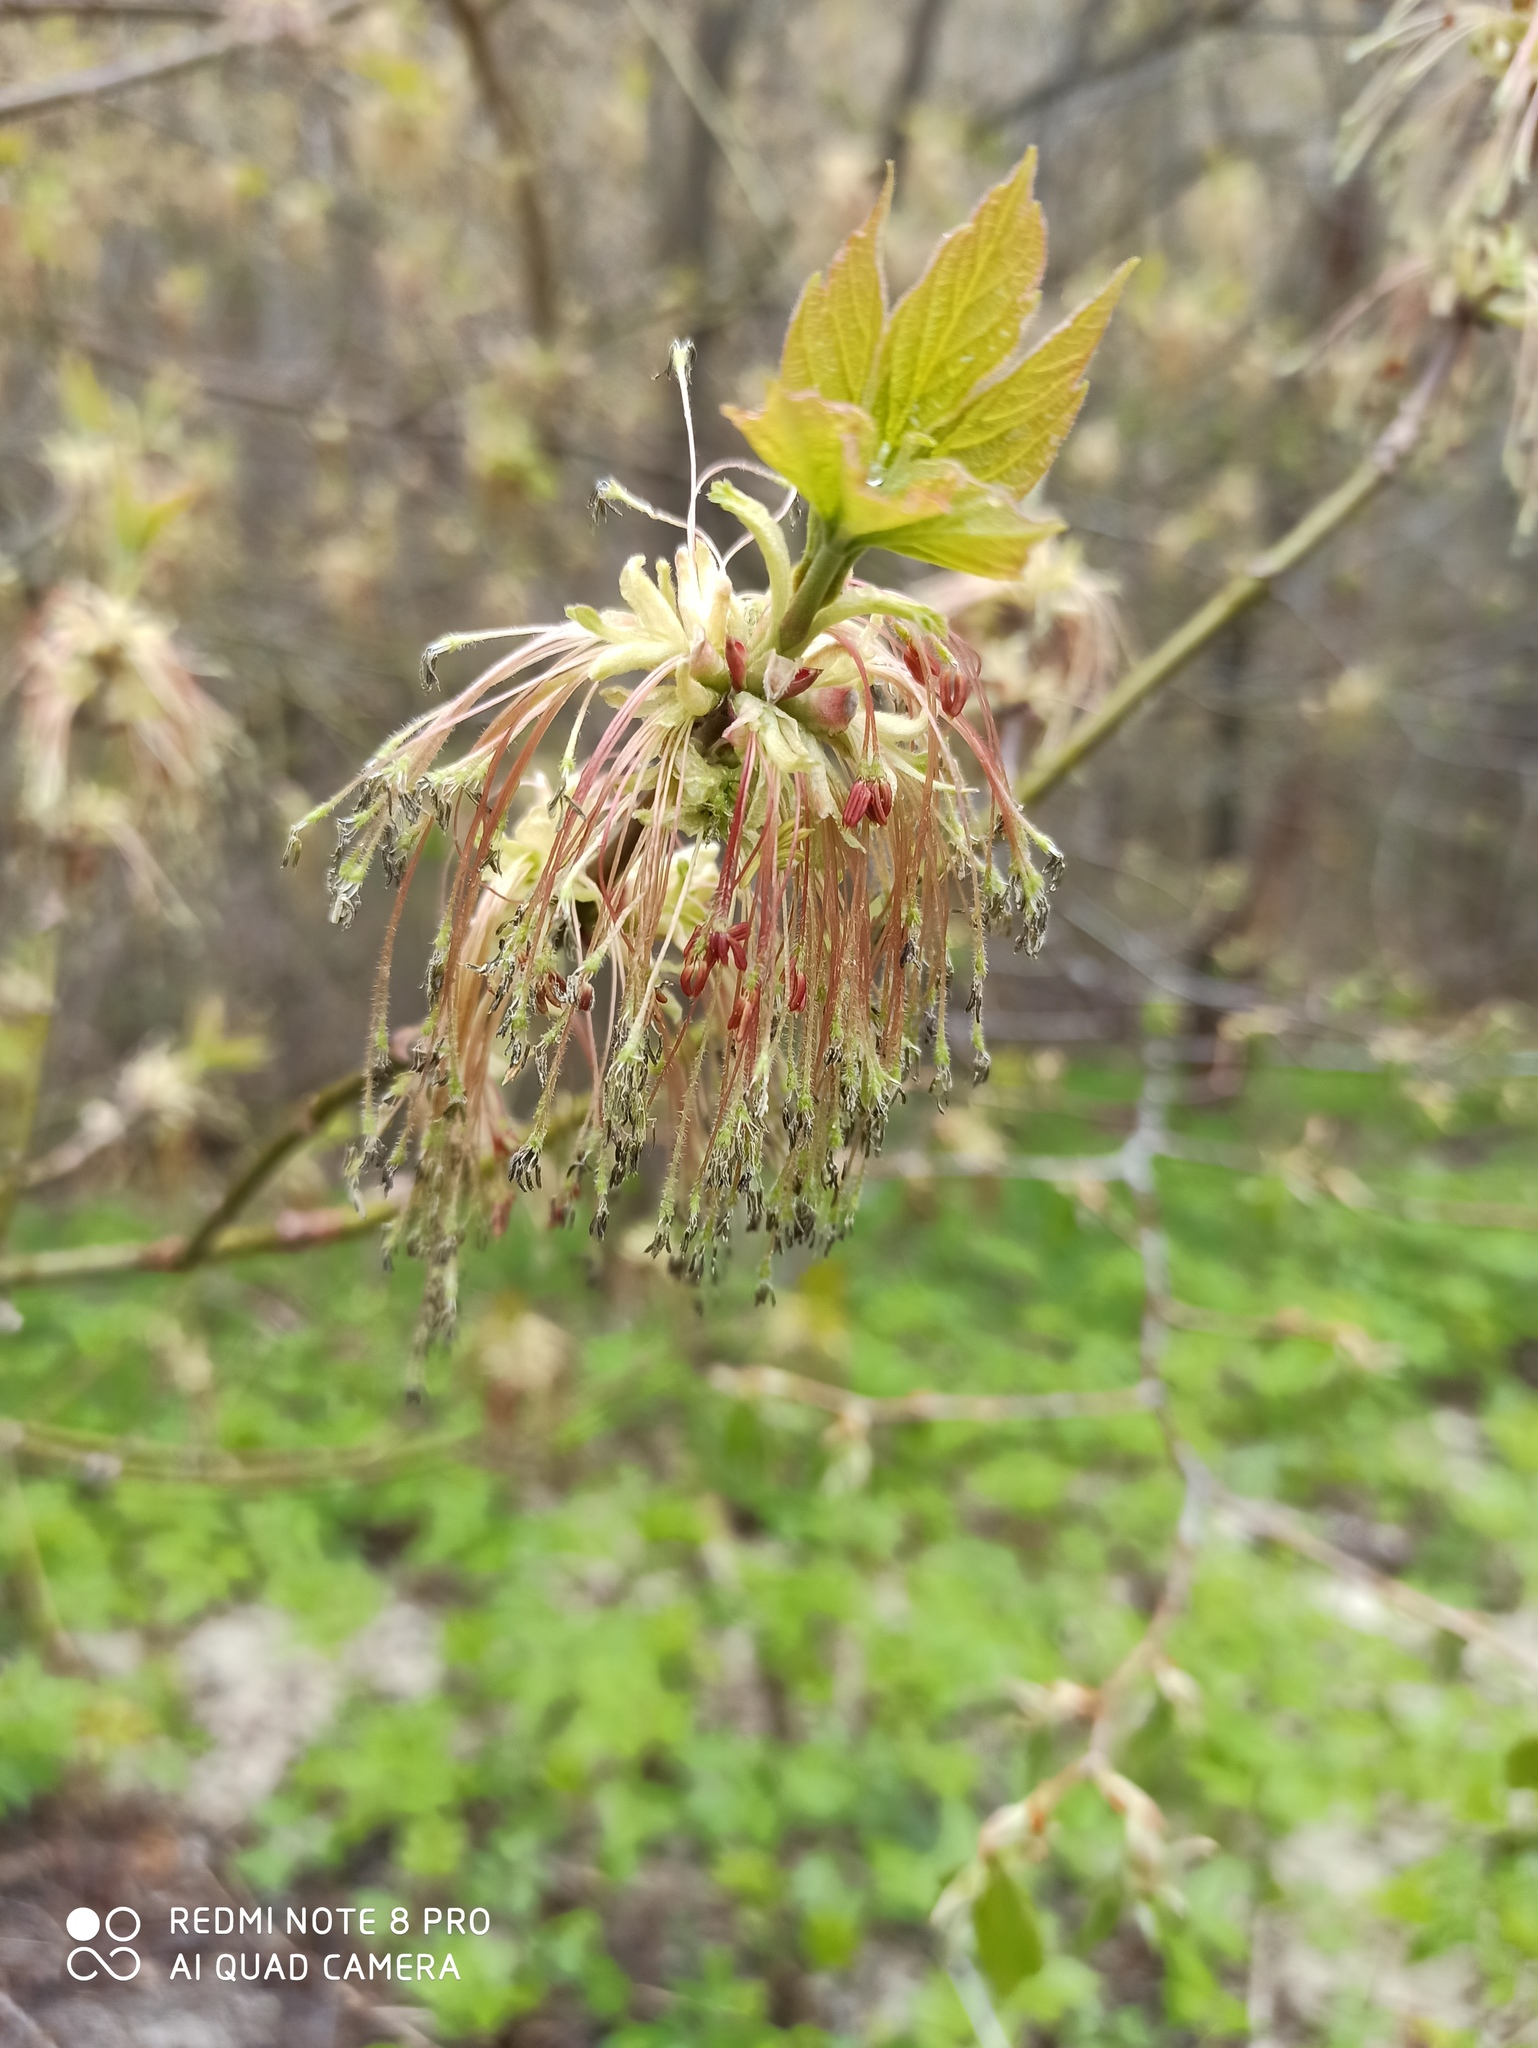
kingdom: Plantae
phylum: Tracheophyta
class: Magnoliopsida
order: Sapindales
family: Sapindaceae
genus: Acer
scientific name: Acer negundo
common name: Ashleaf maple
